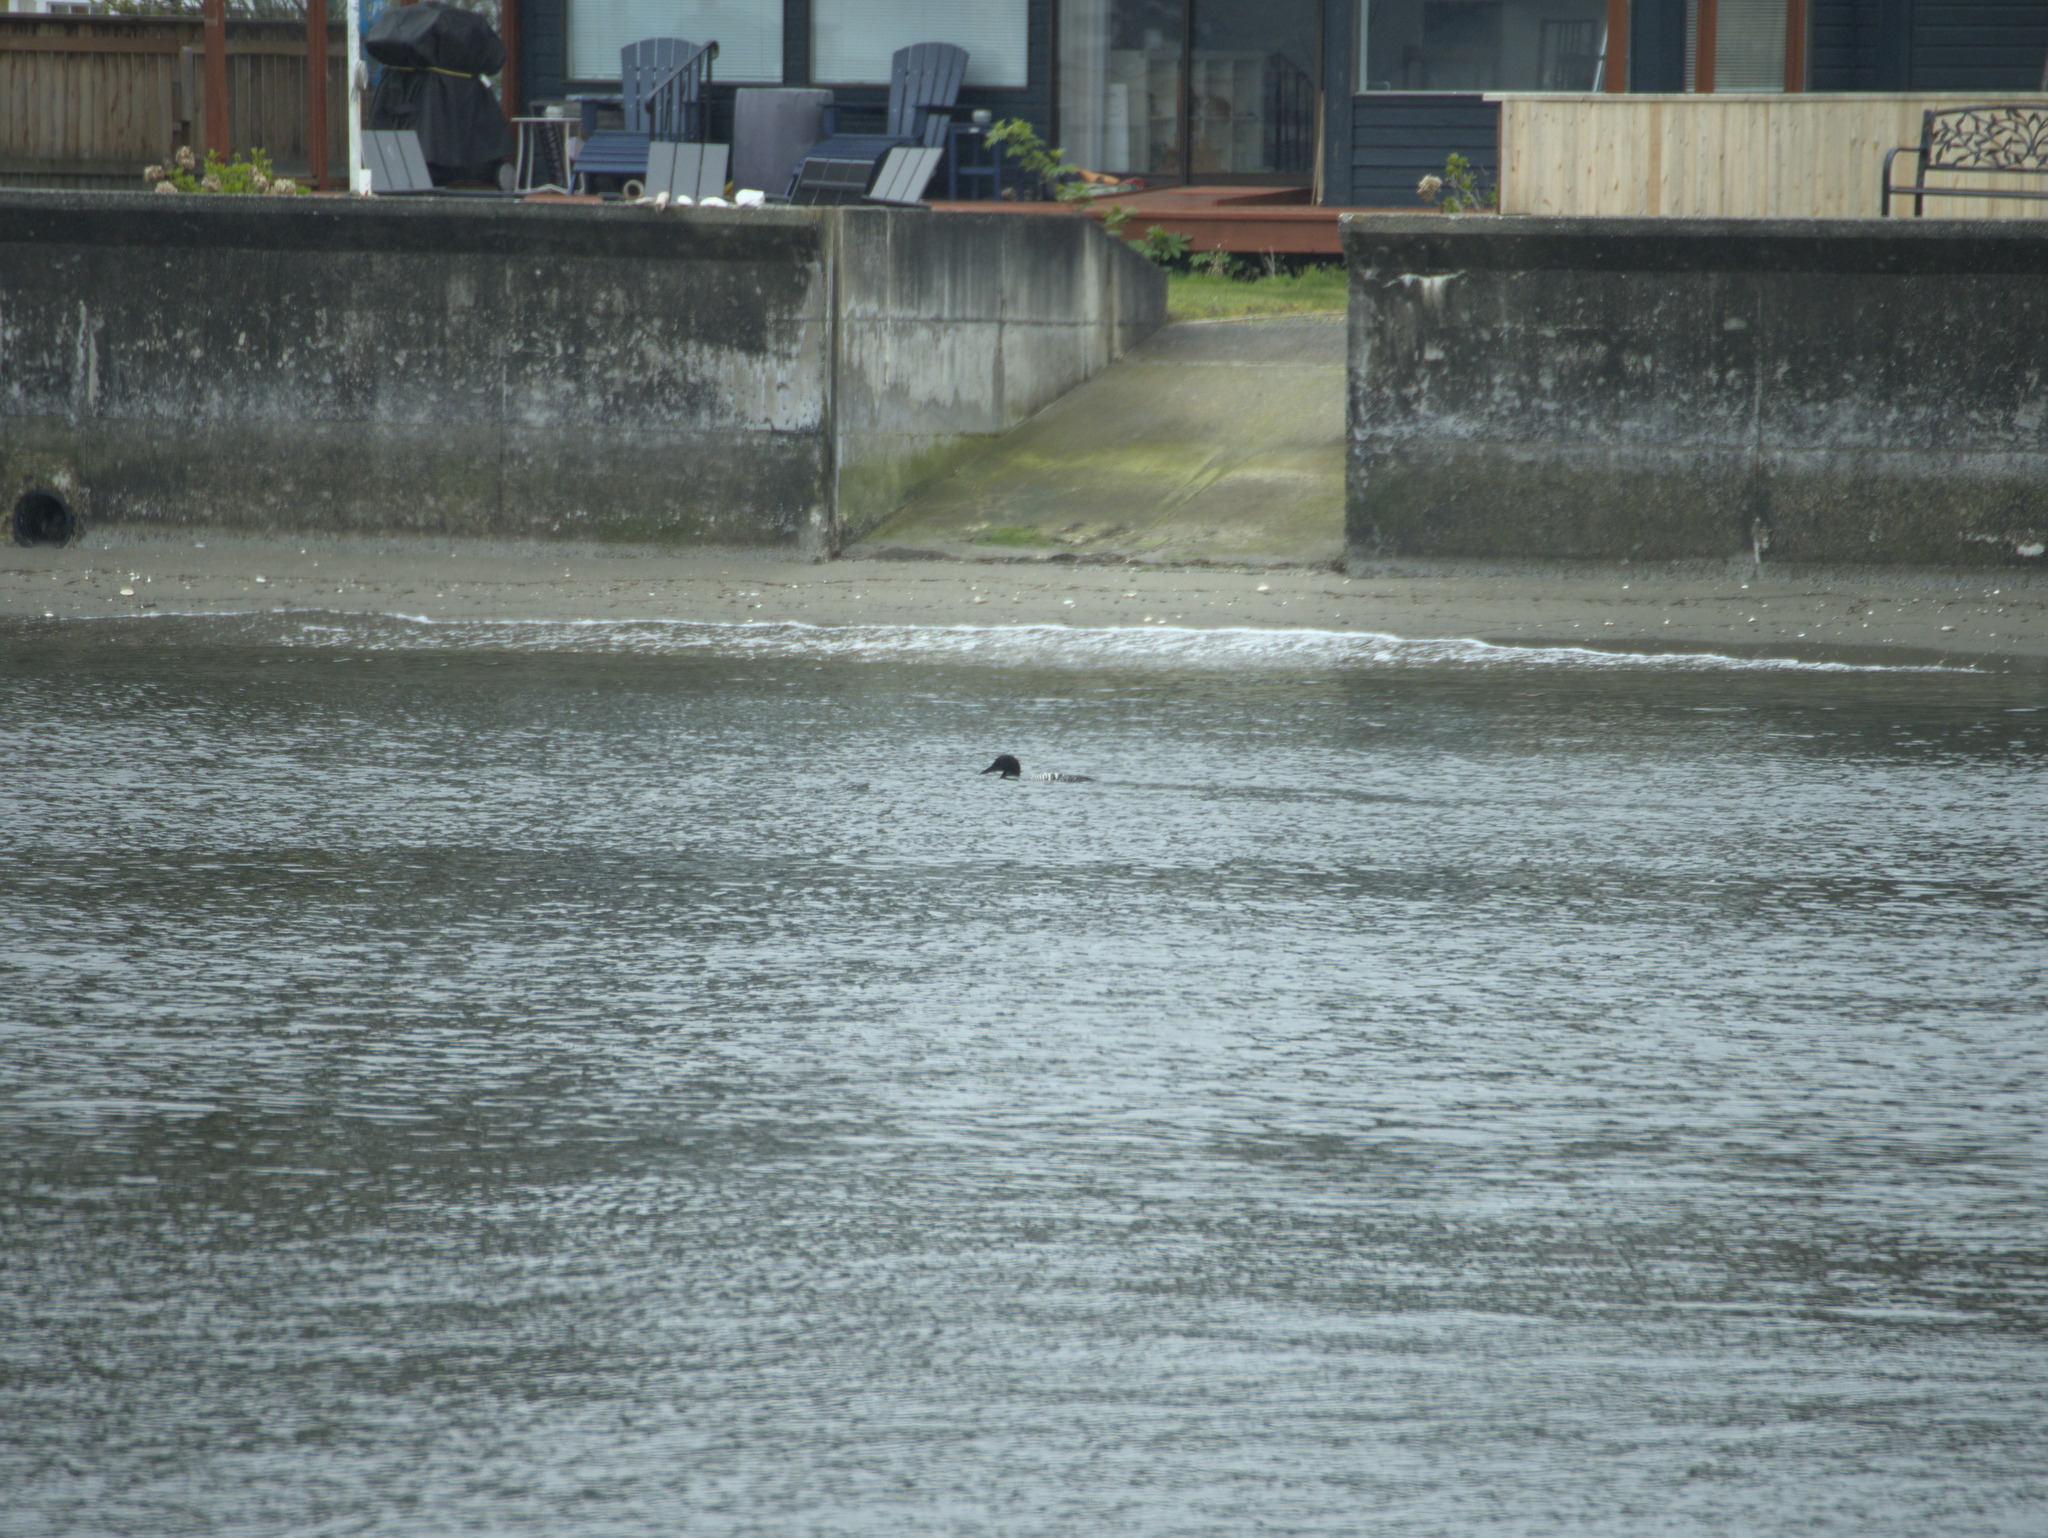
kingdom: Animalia
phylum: Chordata
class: Aves
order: Gaviiformes
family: Gaviidae
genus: Gavia
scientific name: Gavia immer
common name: Common loon
